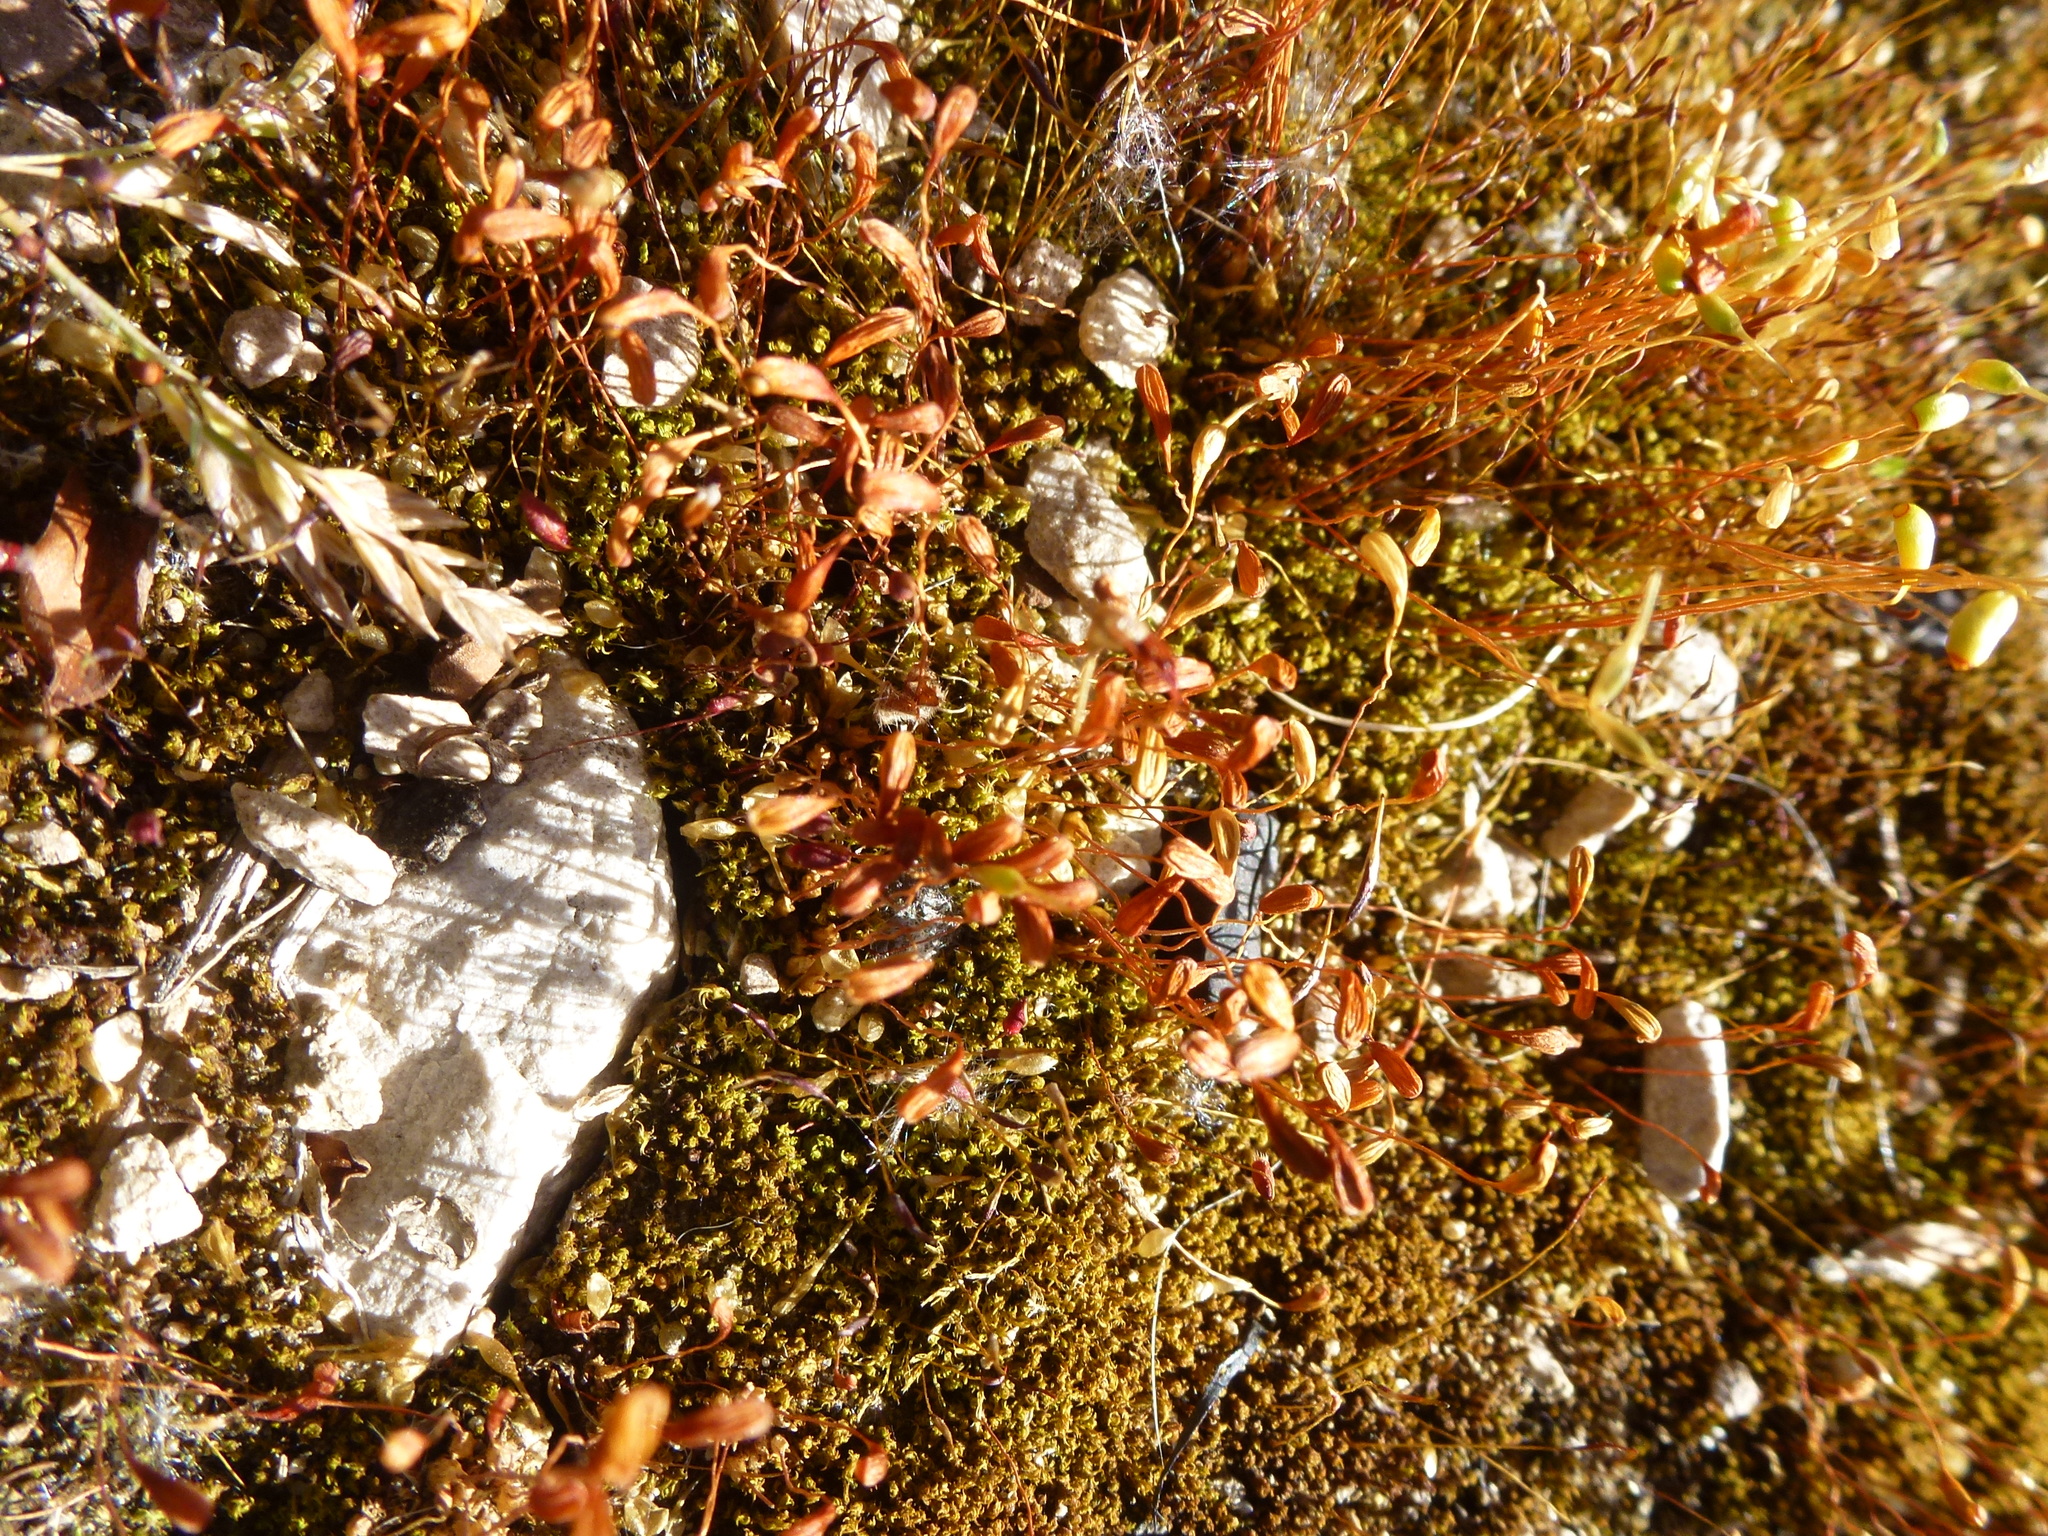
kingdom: Plantae
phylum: Bryophyta
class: Bryopsida
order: Funariales
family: Funariaceae
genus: Funaria
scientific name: Funaria hygrometrica
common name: Common cord moss
